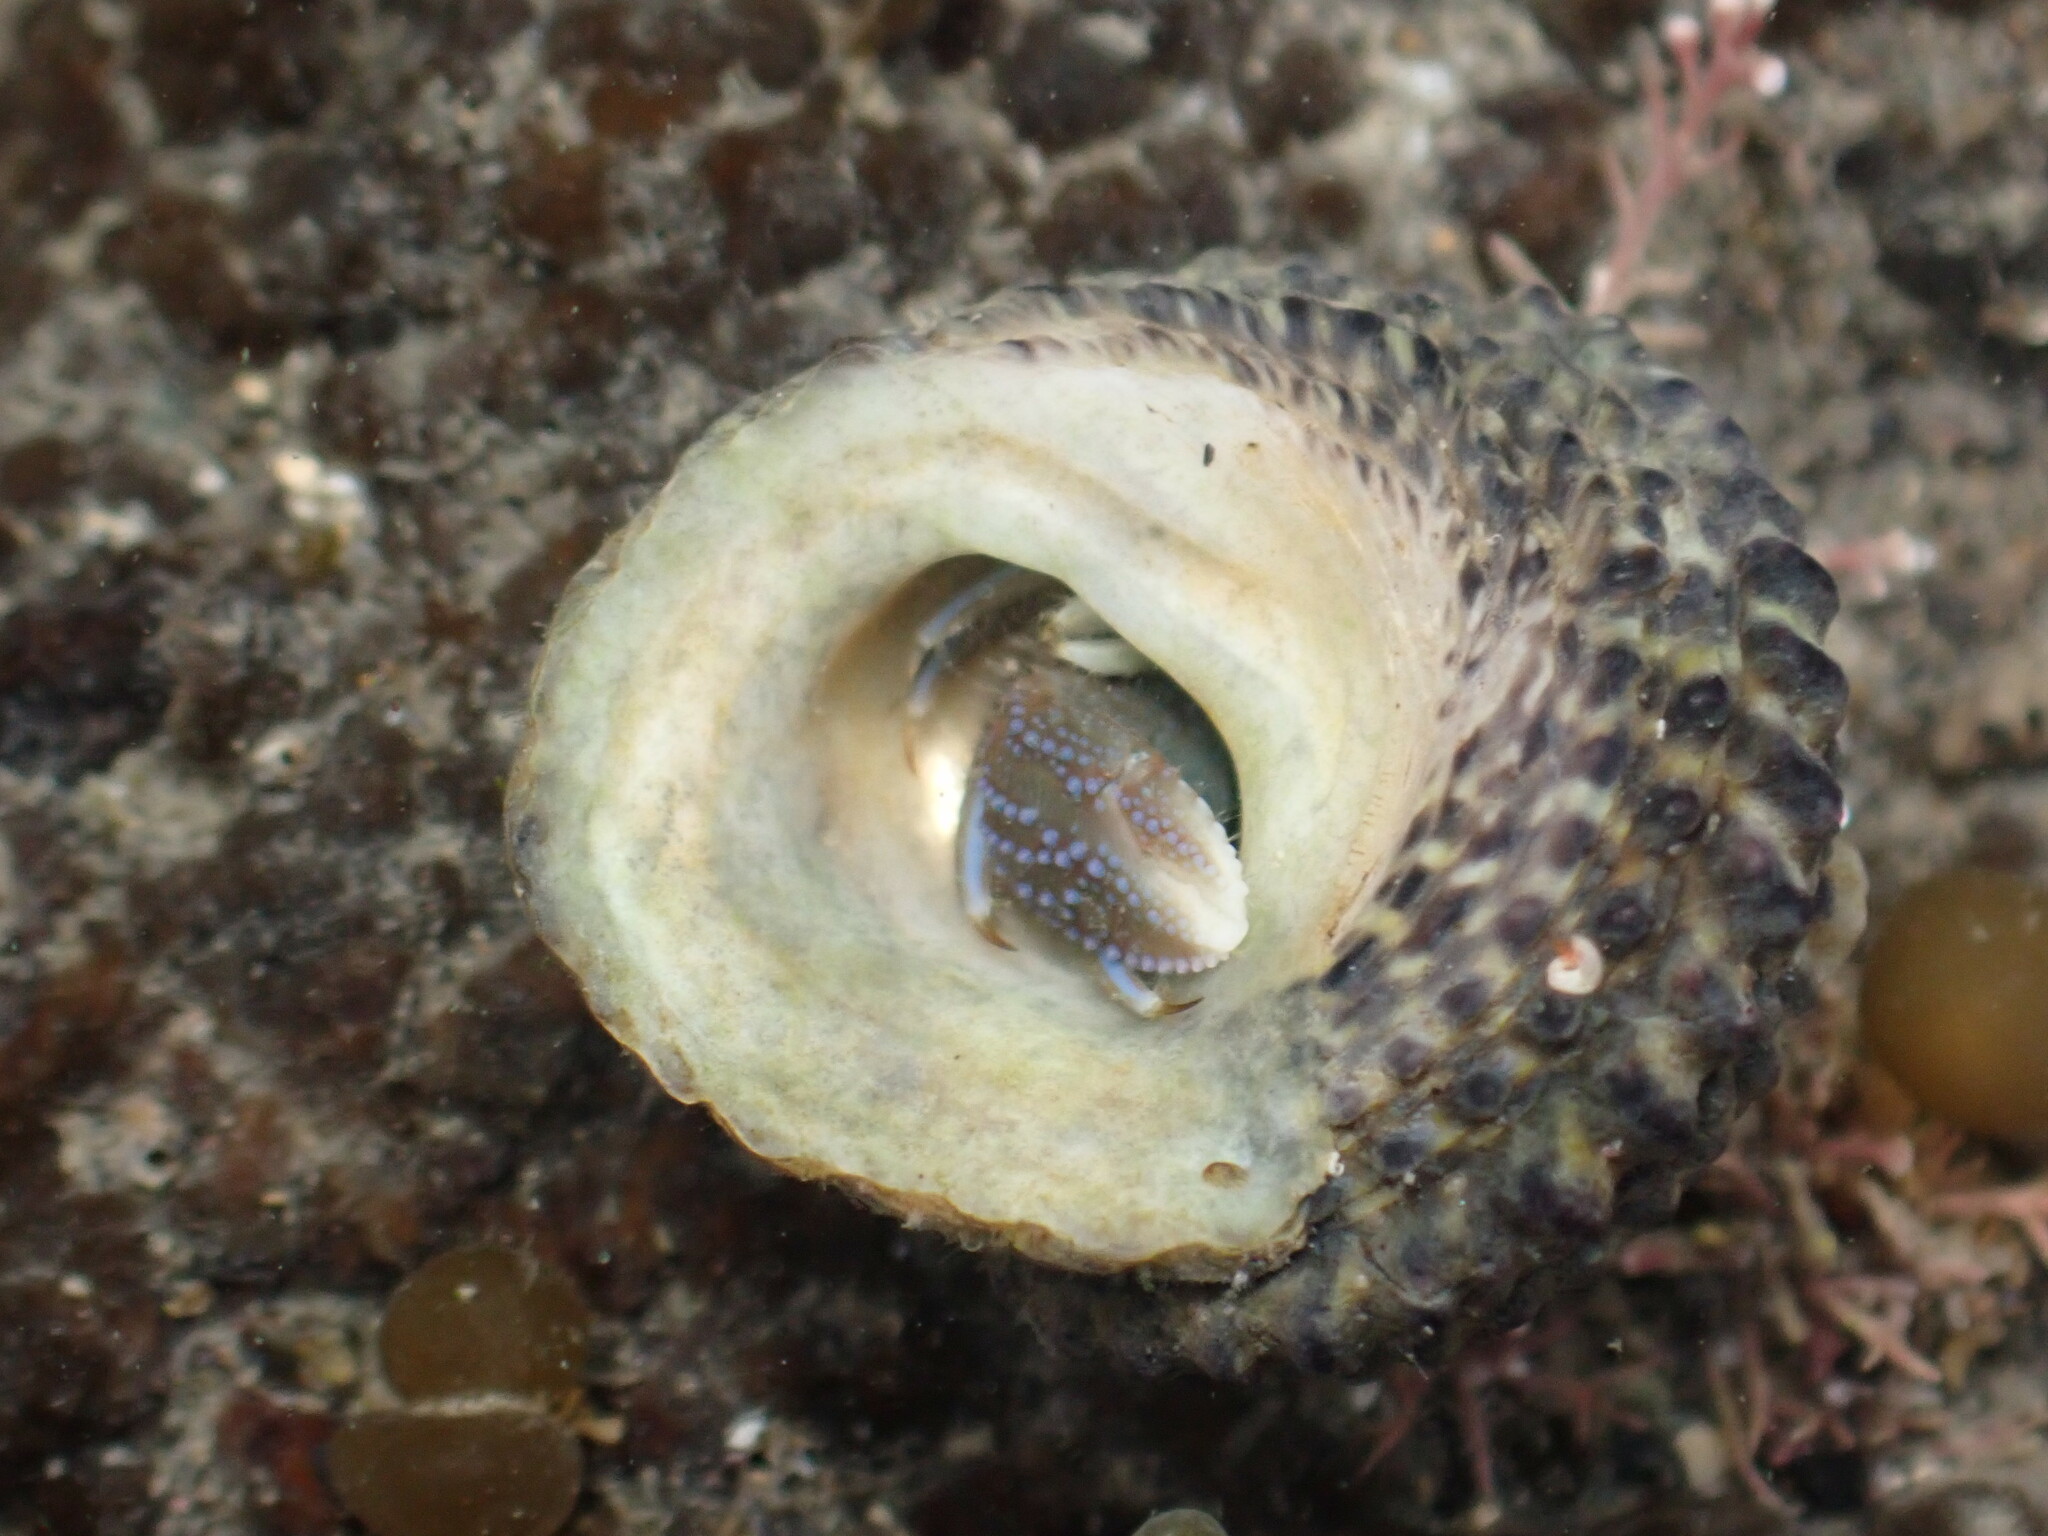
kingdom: Animalia
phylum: Arthropoda
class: Malacostraca
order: Decapoda
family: Paguridae
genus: Pagurus
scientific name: Pagurus novizealandiae
